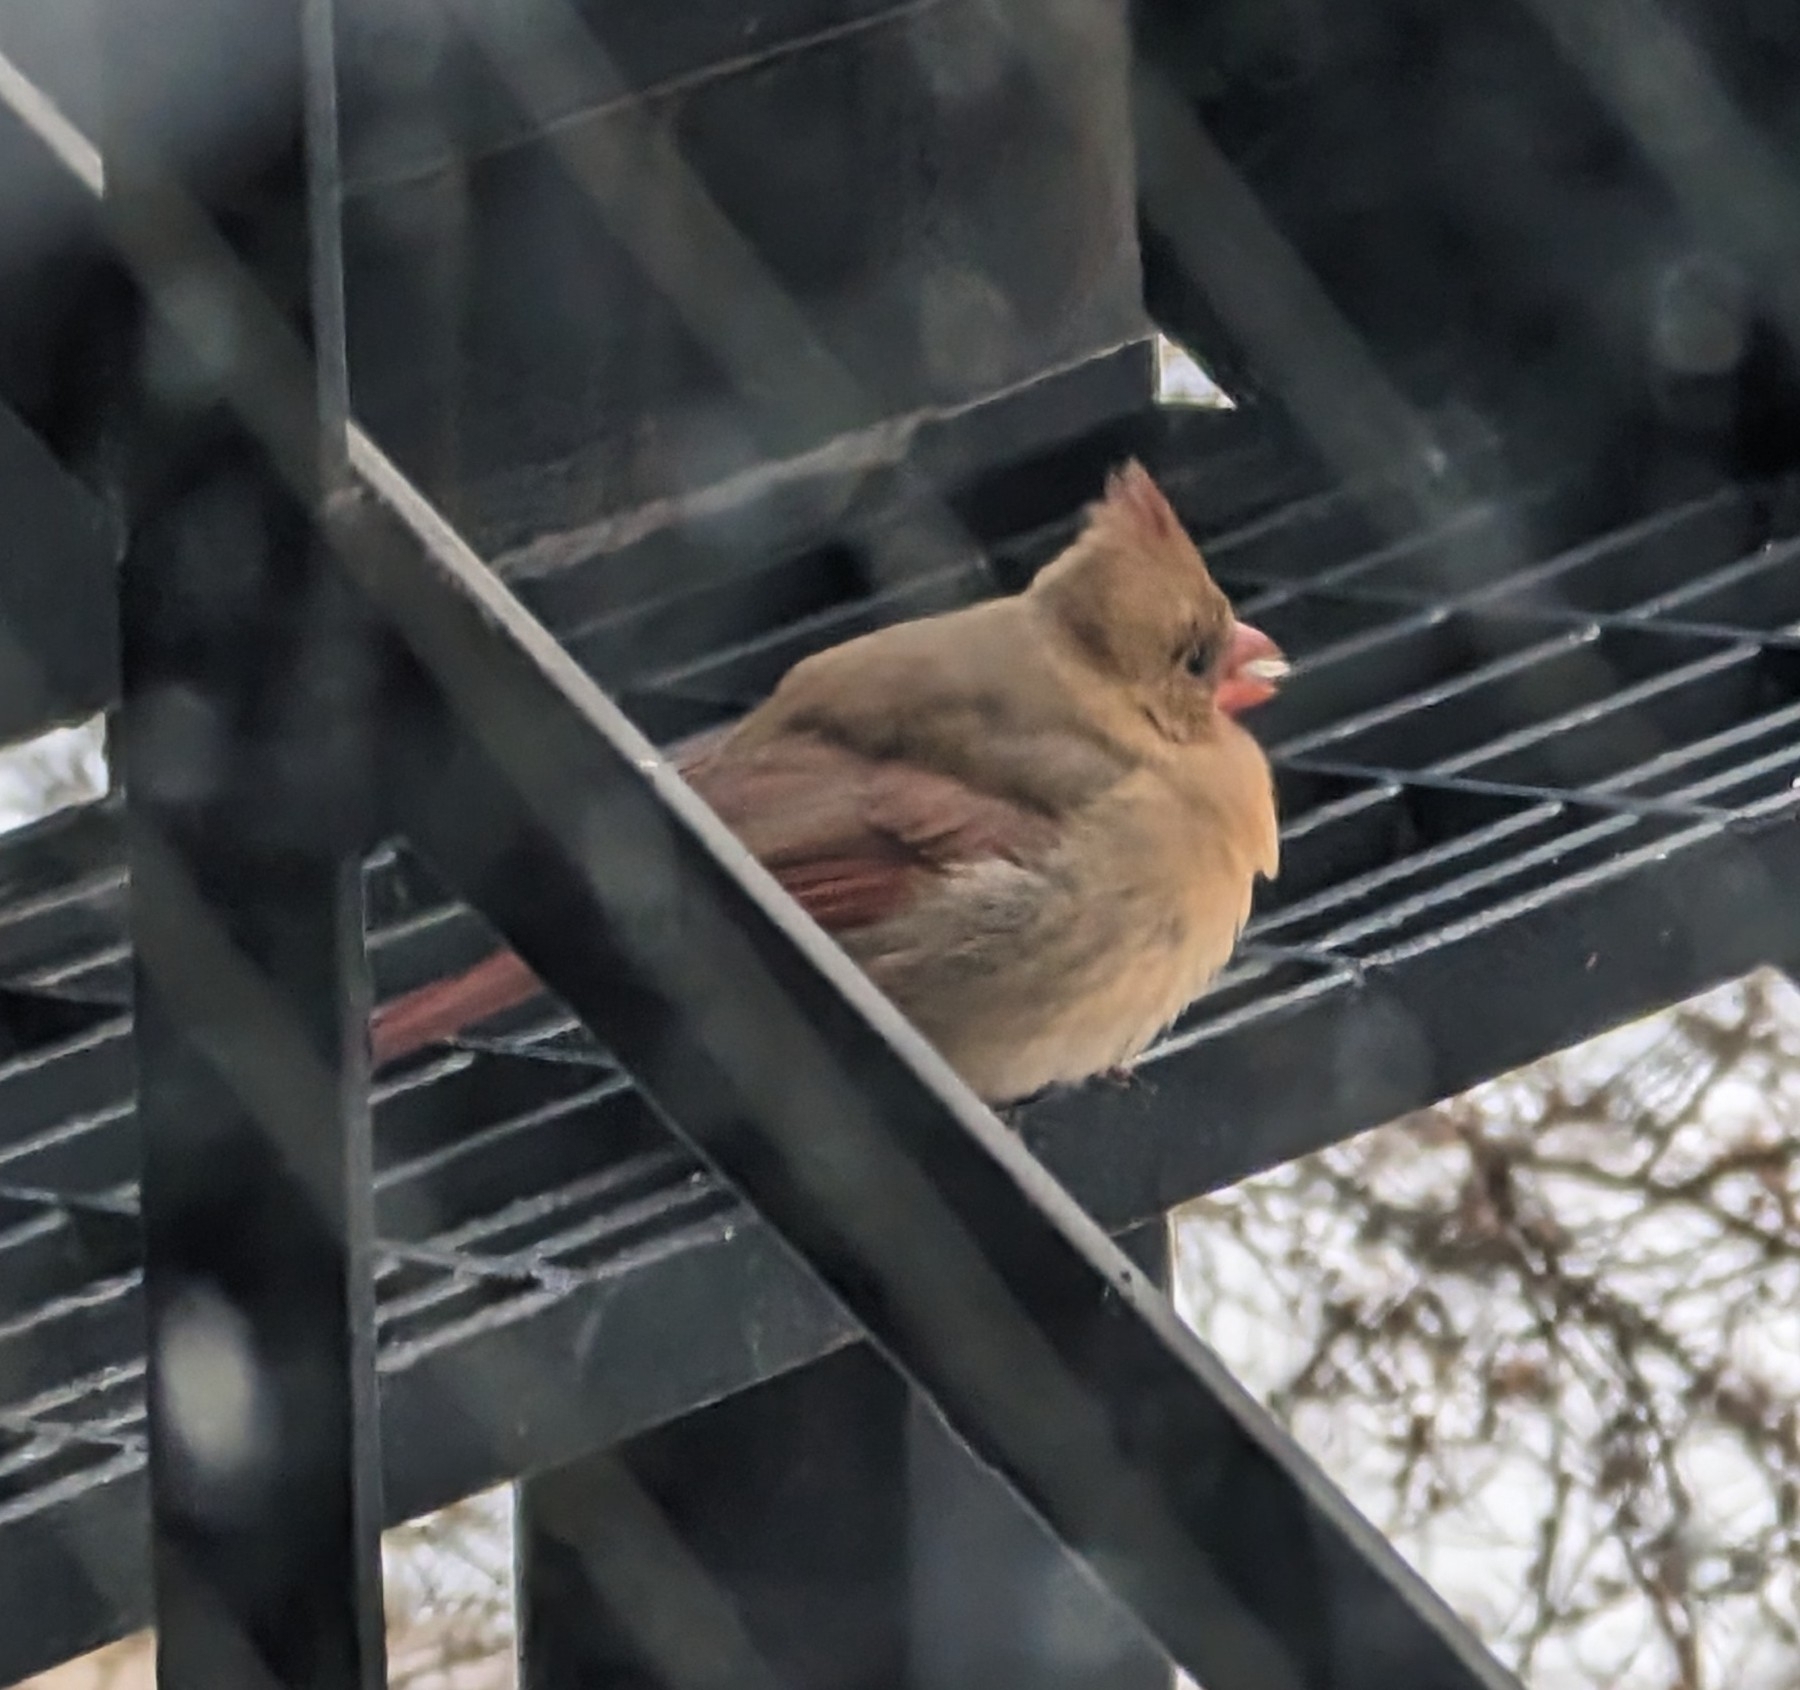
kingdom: Animalia
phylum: Chordata
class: Aves
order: Passeriformes
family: Cardinalidae
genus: Cardinalis
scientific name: Cardinalis cardinalis
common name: Northern cardinal
